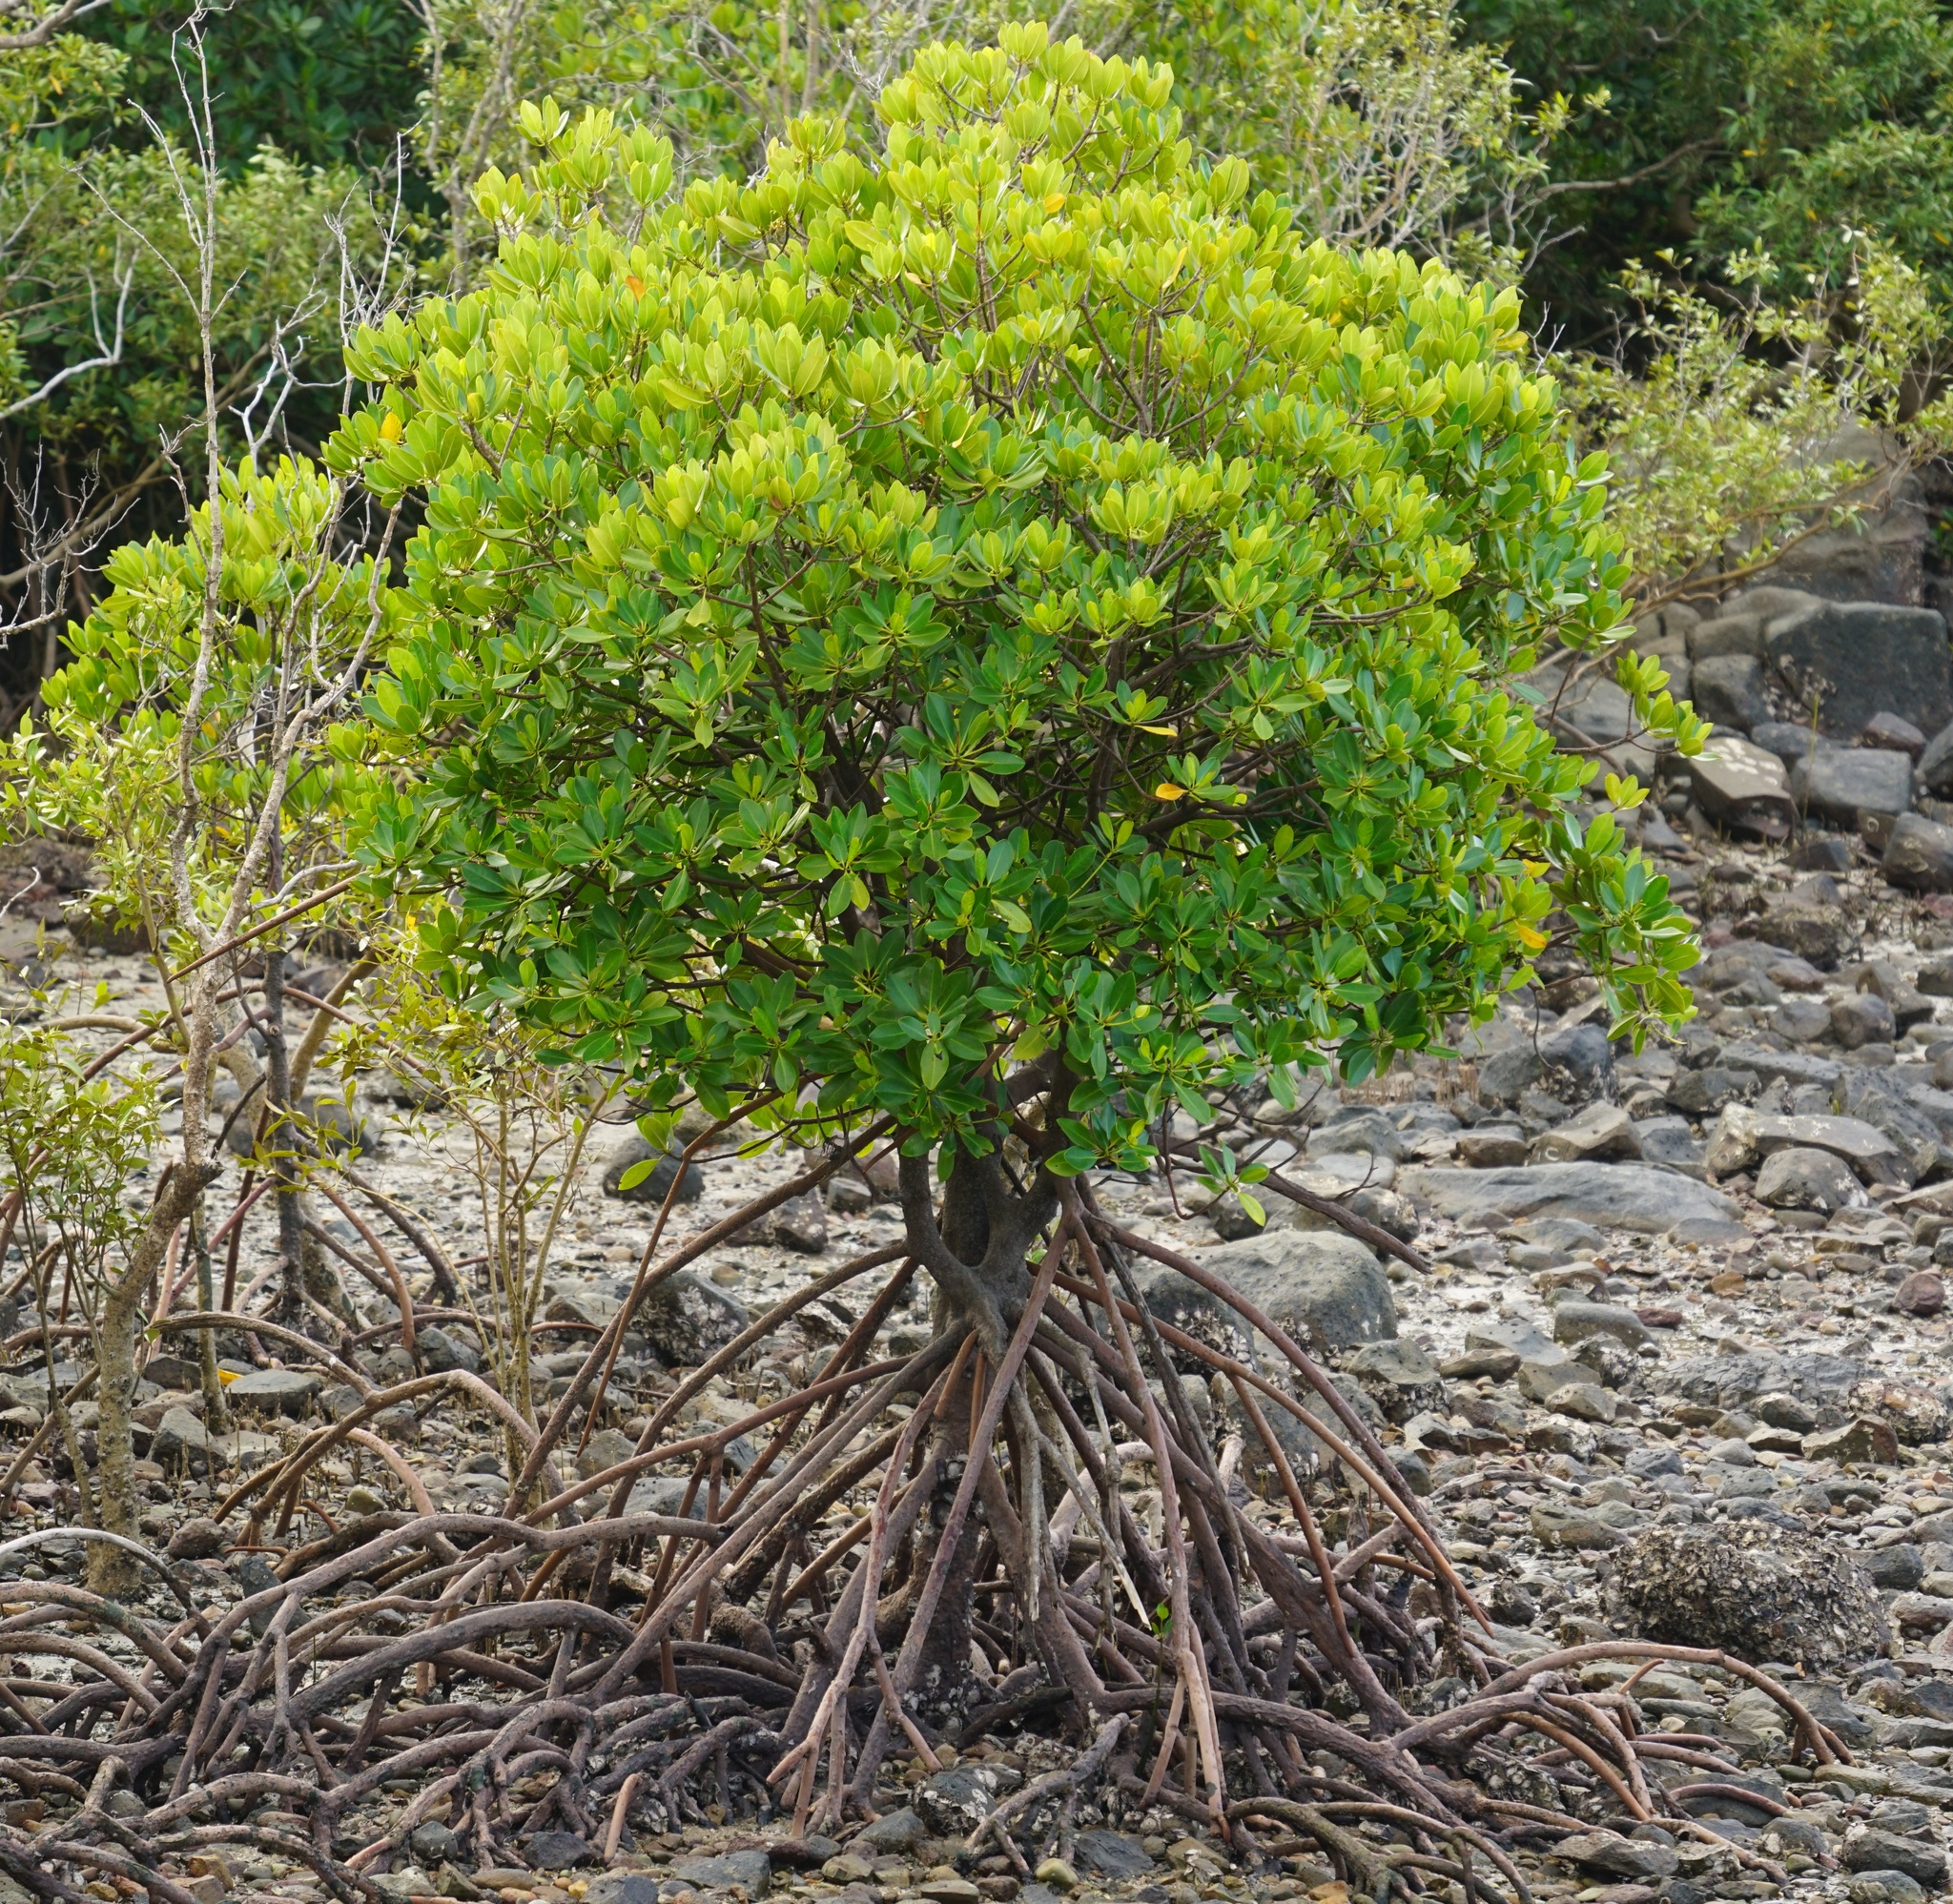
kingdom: Plantae
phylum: Tracheophyta
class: Magnoliopsida
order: Malpighiales
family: Rhizophoraceae
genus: Rhizophora
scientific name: Rhizophora stylosa
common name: Red mangrove
